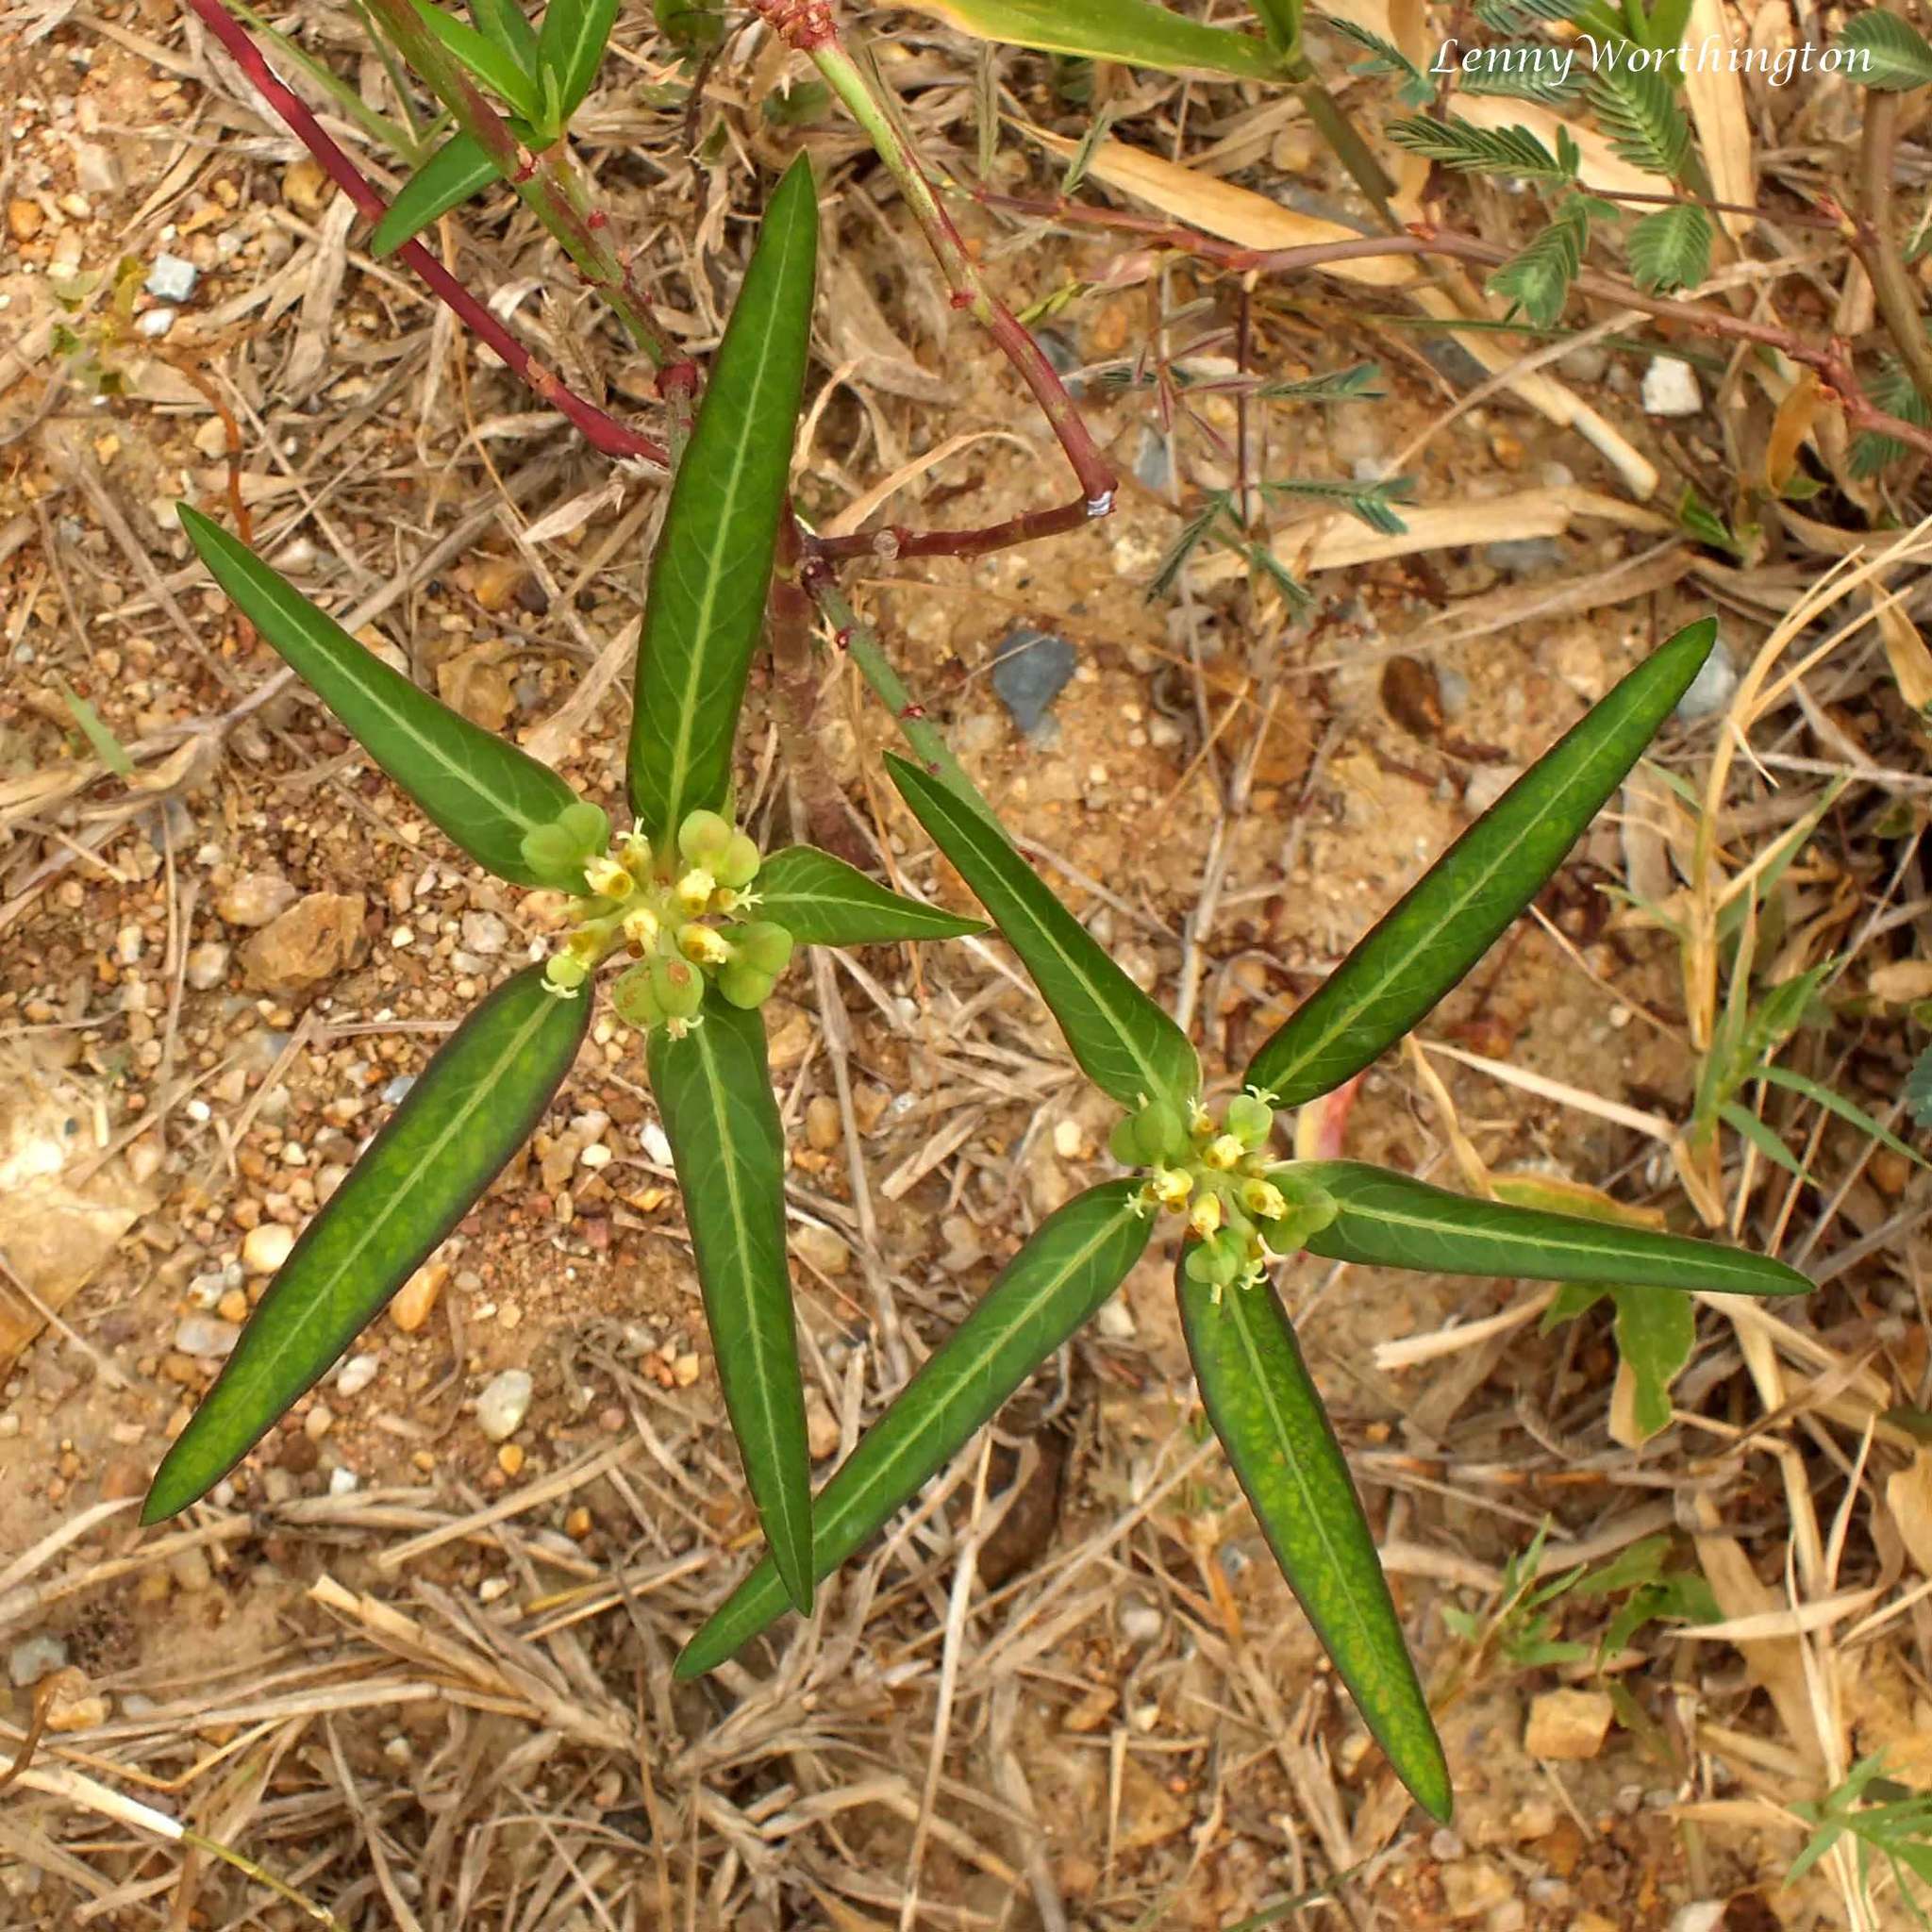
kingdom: Plantae
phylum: Tracheophyta
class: Magnoliopsida
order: Malpighiales
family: Euphorbiaceae
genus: Euphorbia
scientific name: Euphorbia heterophylla
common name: Mexican fireplant
